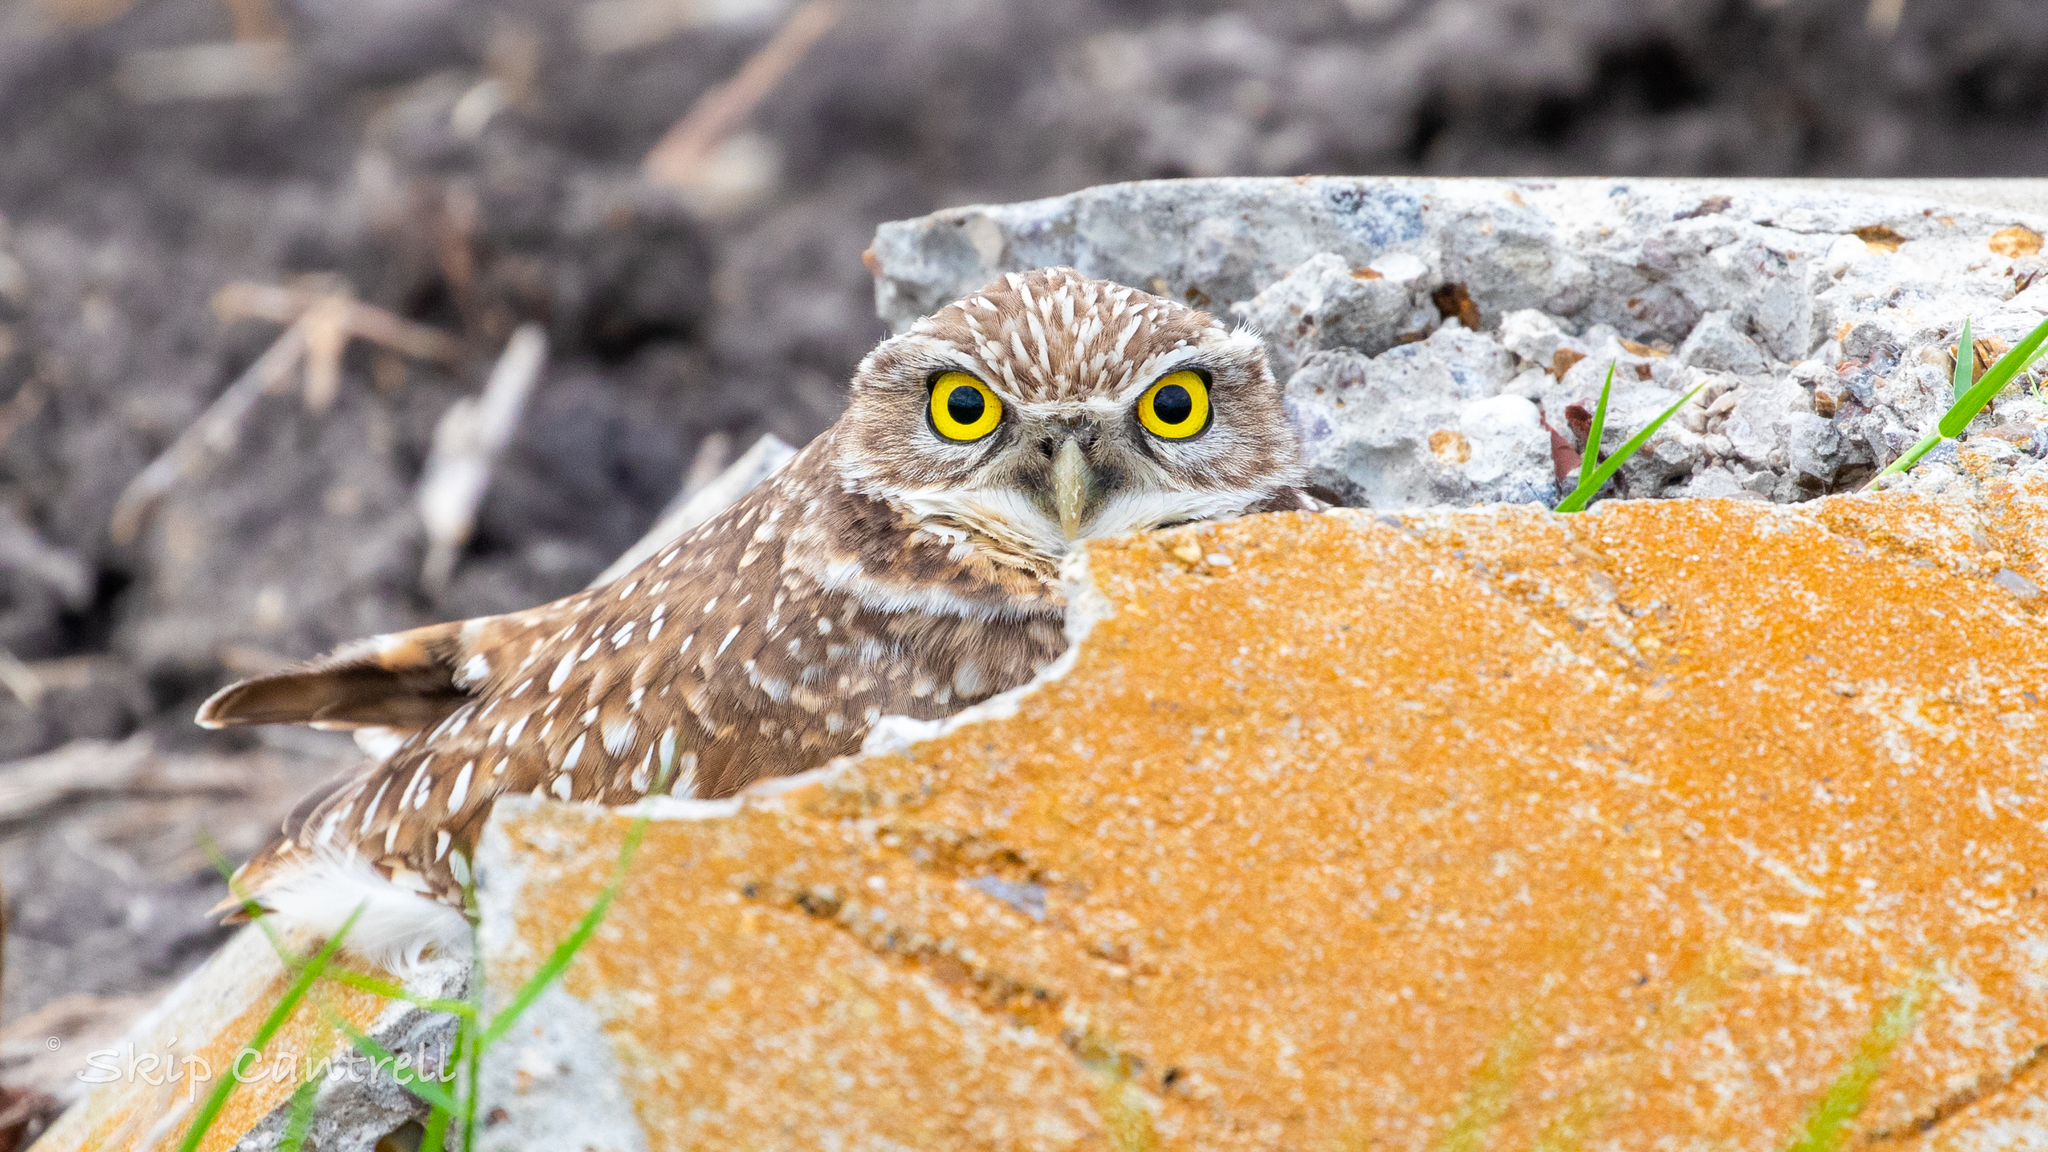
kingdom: Animalia
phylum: Chordata
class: Aves
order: Strigiformes
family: Strigidae
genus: Athene
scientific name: Athene cunicularia
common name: Burrowing owl
